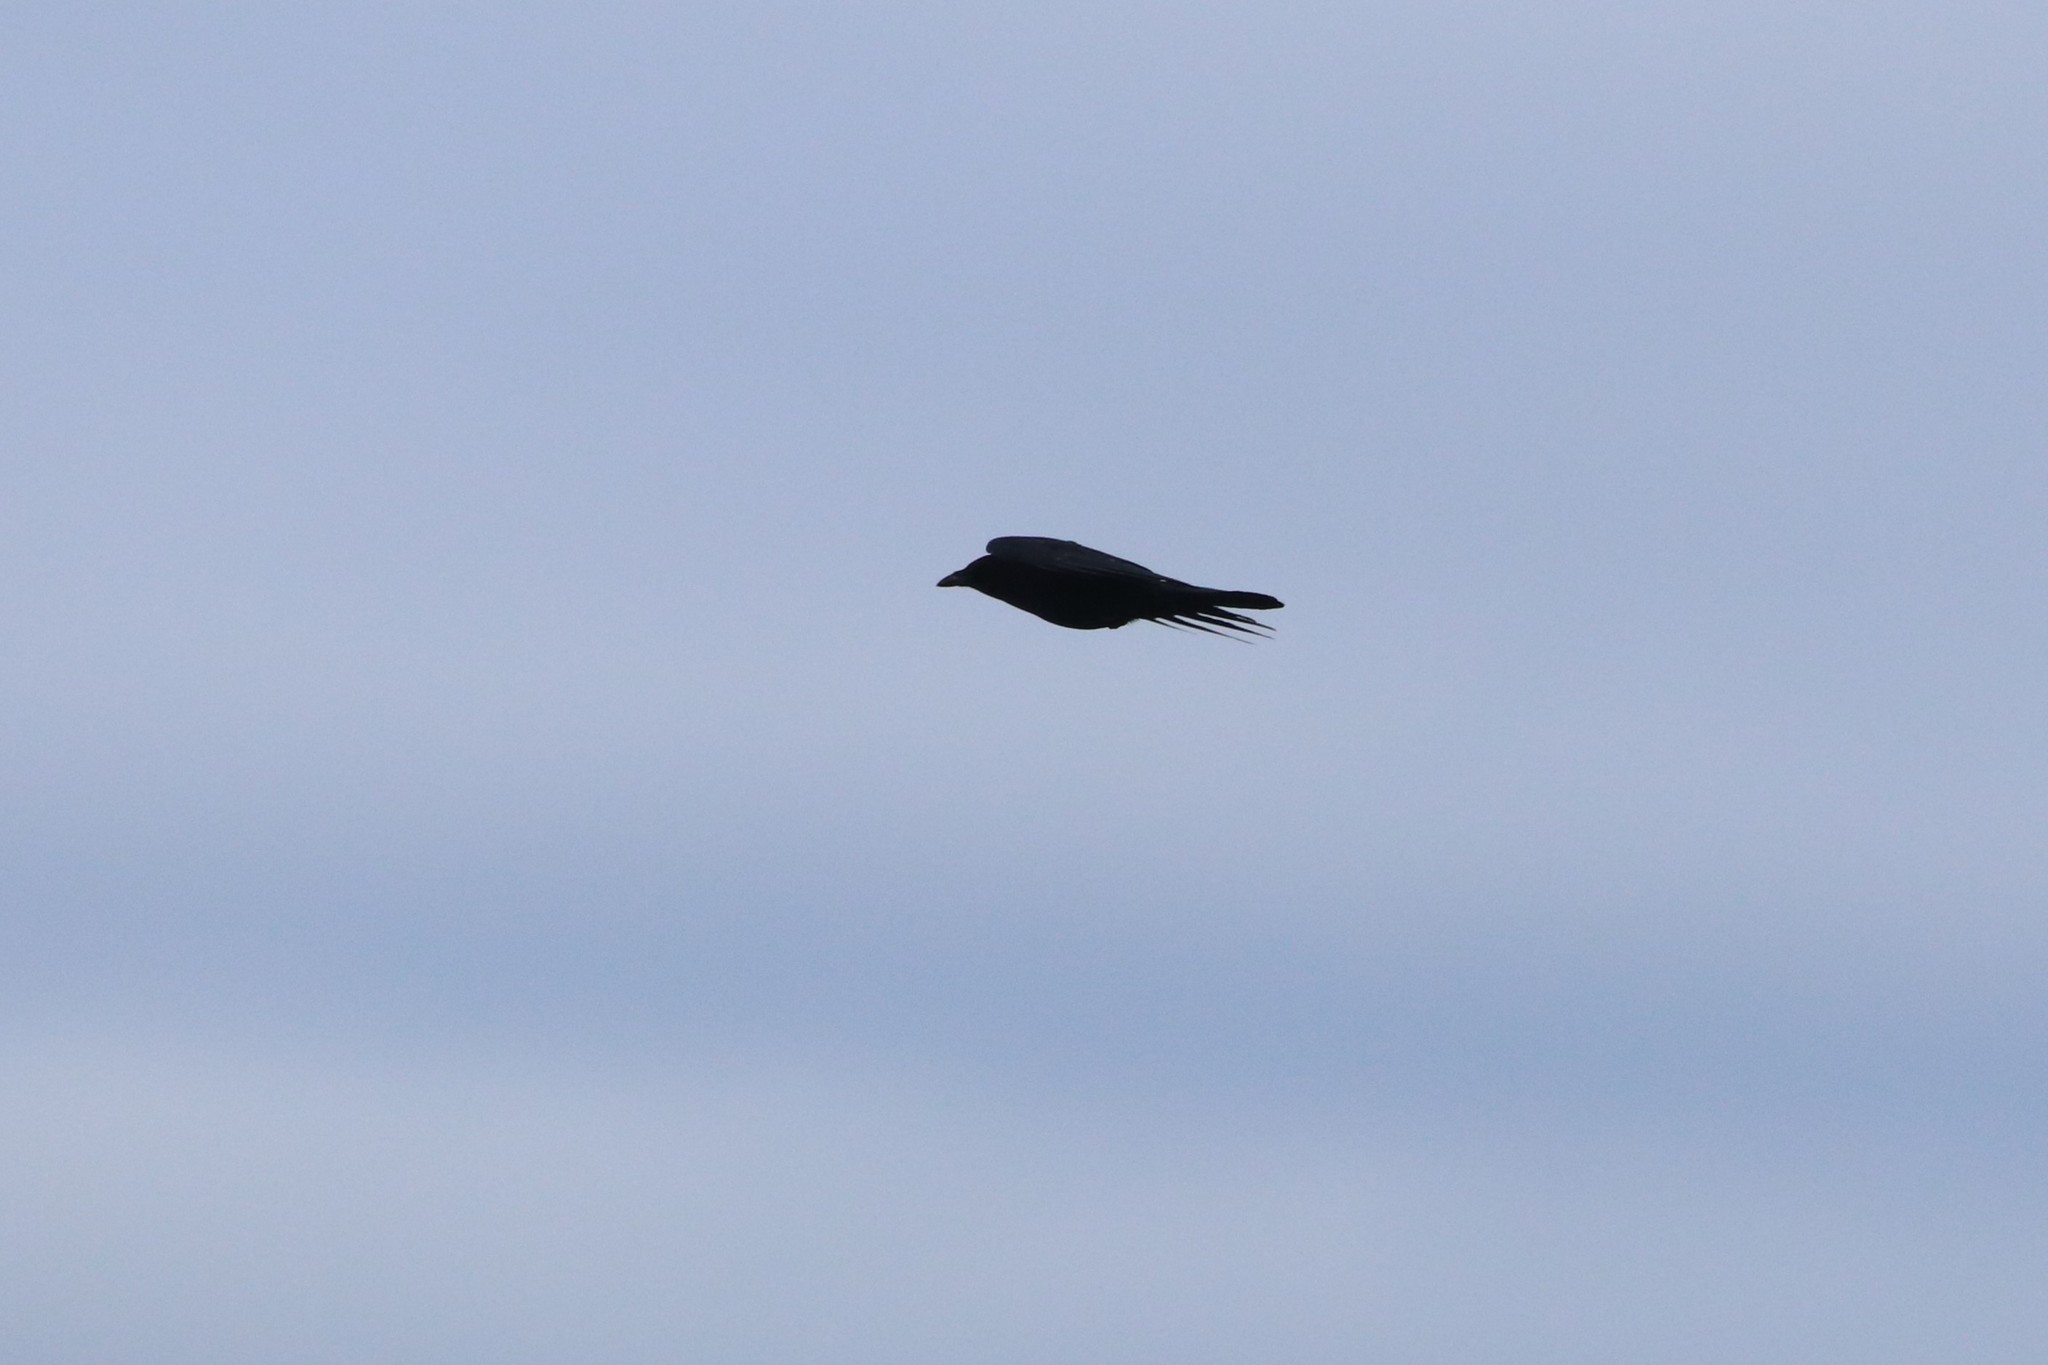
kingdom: Animalia
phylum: Chordata
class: Aves
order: Passeriformes
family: Corvidae
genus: Corvus
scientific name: Corvus brachyrhynchos
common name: American crow
